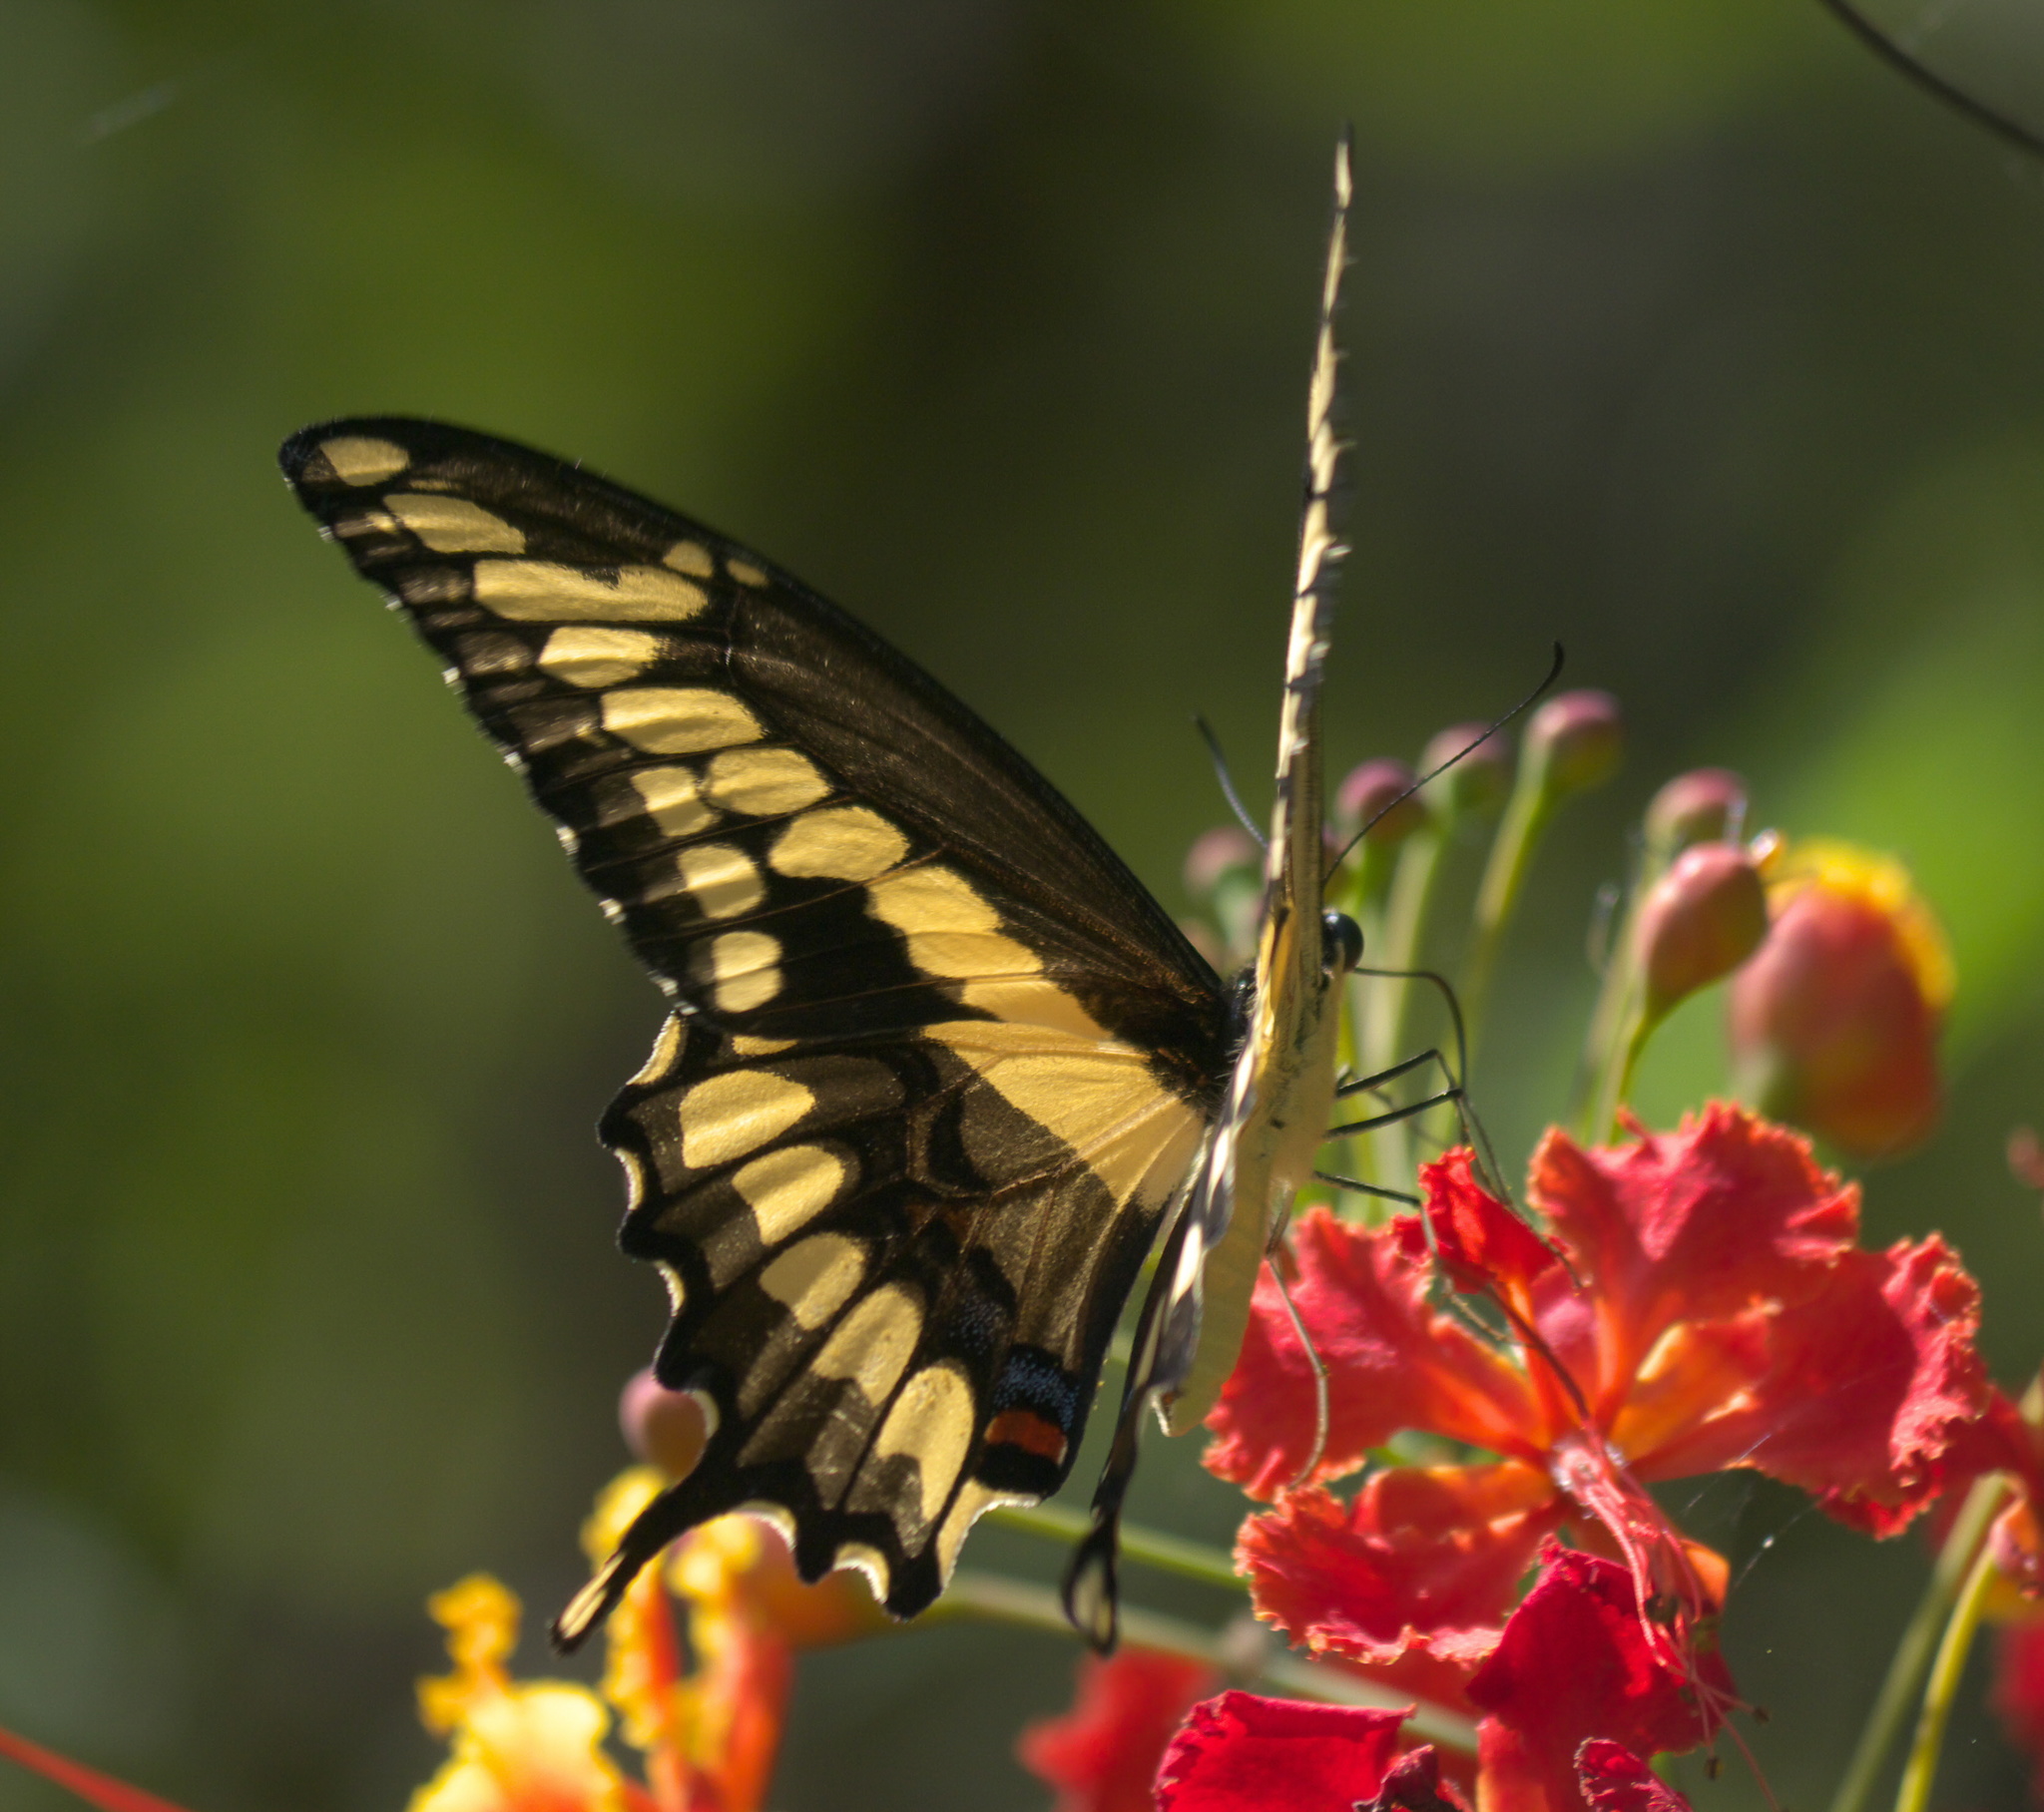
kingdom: Animalia
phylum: Arthropoda
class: Insecta
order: Lepidoptera
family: Papilionidae
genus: Papilio
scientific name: Papilio cresphontes
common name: Giant swallowtail
